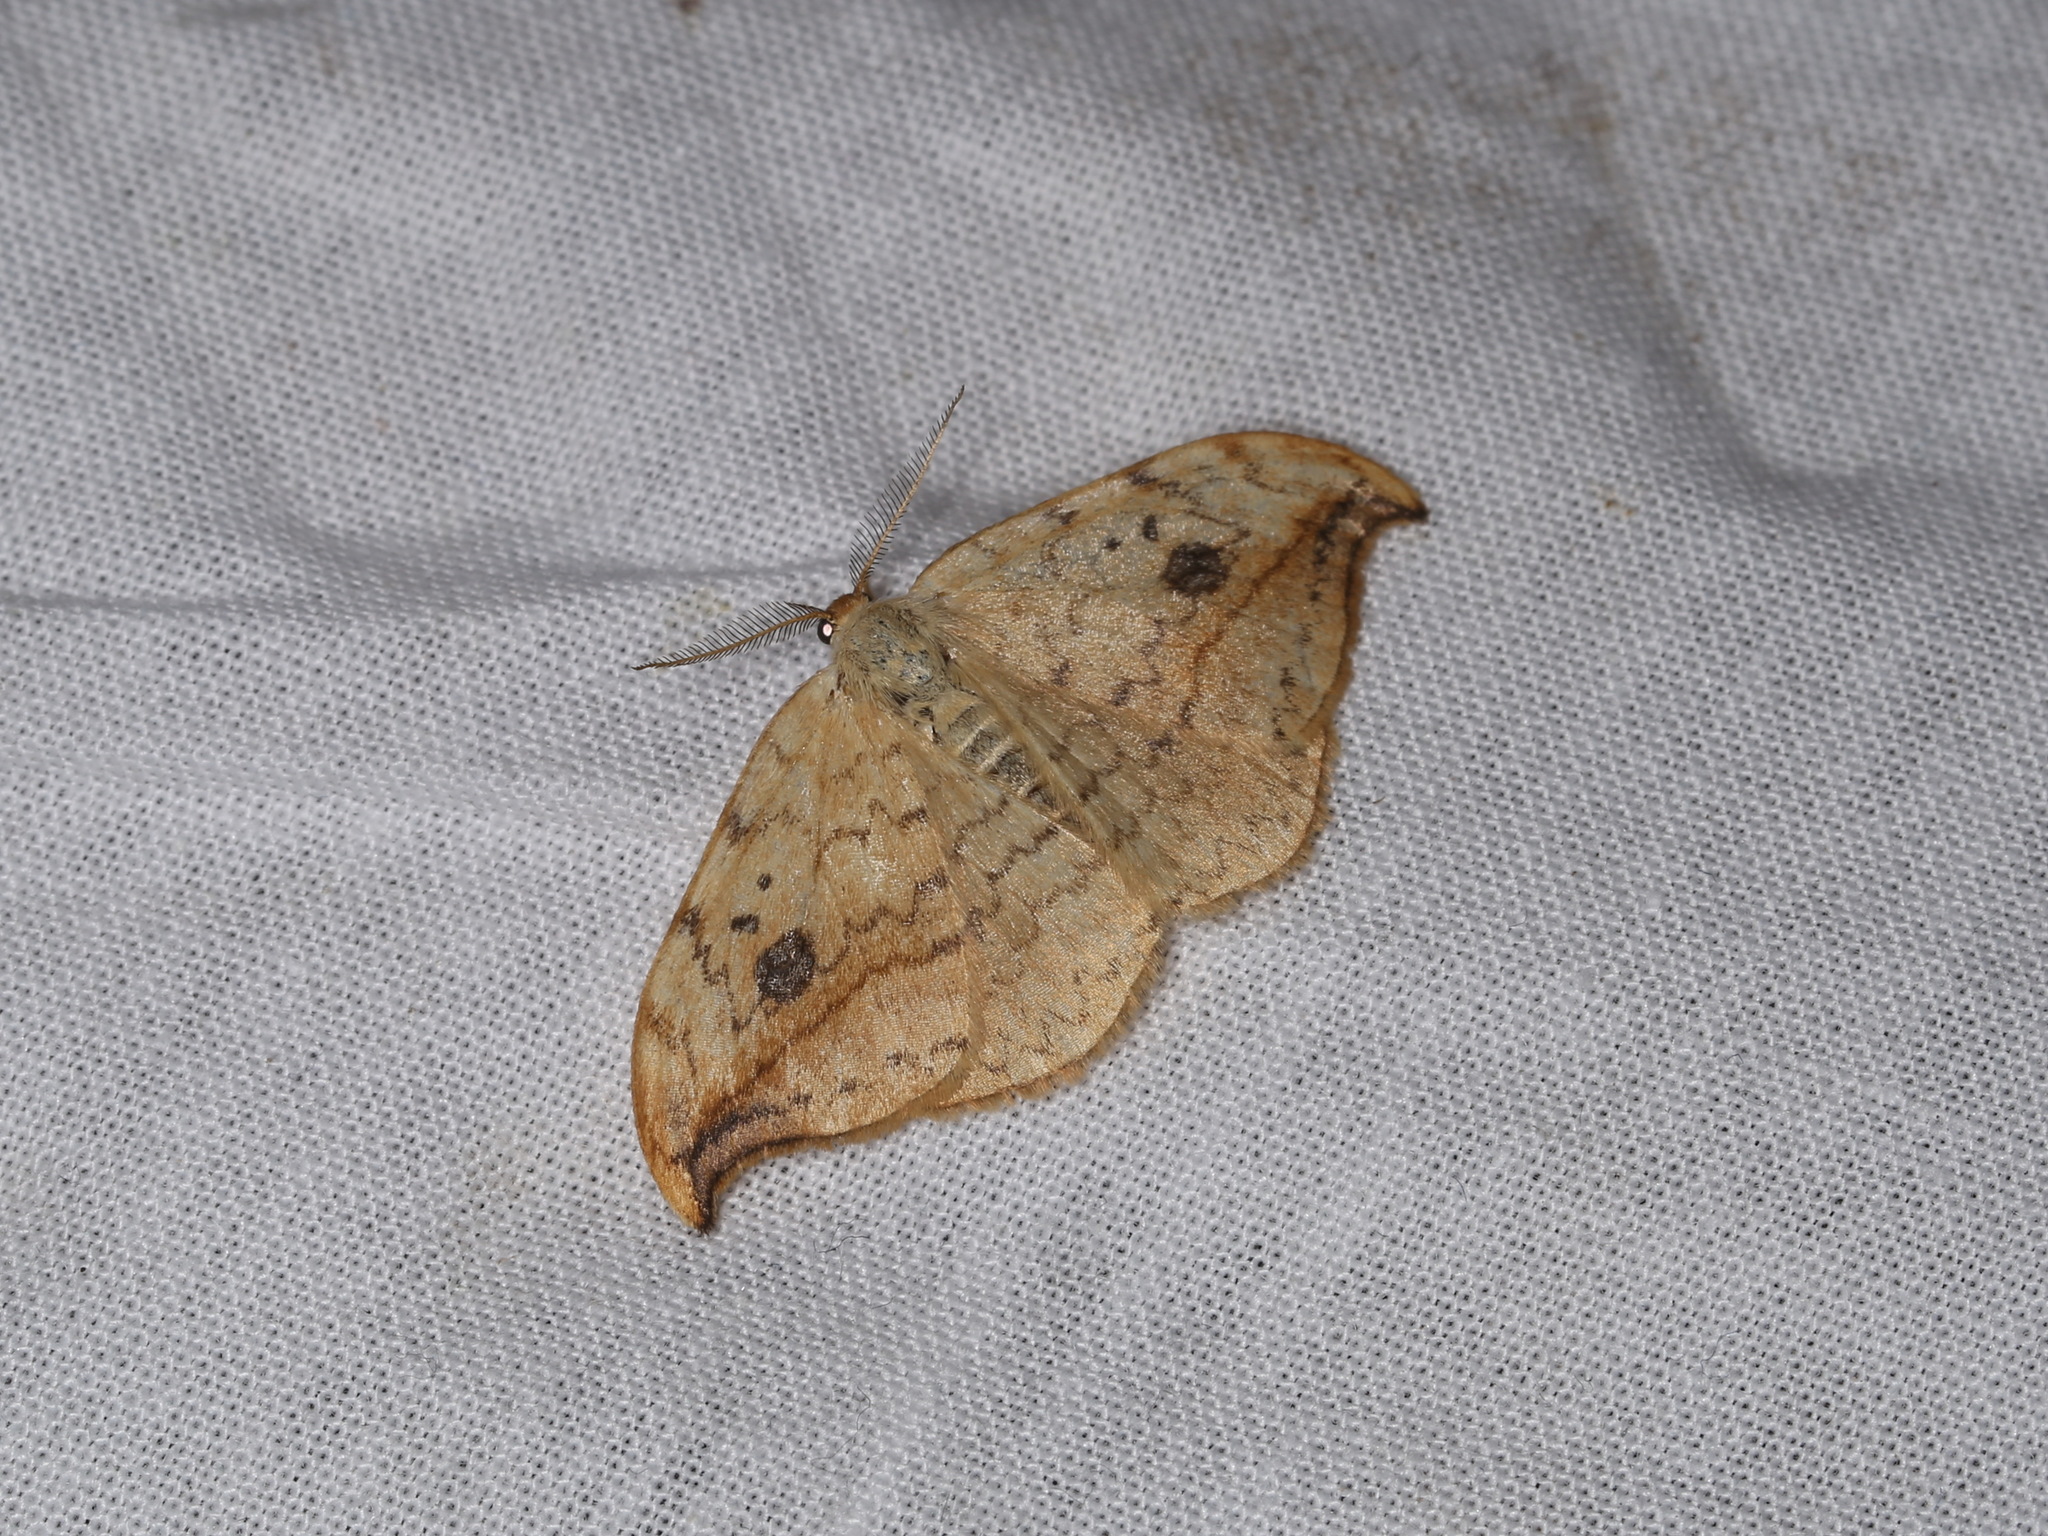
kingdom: Animalia
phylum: Arthropoda
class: Insecta
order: Lepidoptera
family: Drepanidae
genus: Drepana
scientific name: Drepana falcataria
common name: Pebble hook-tip
